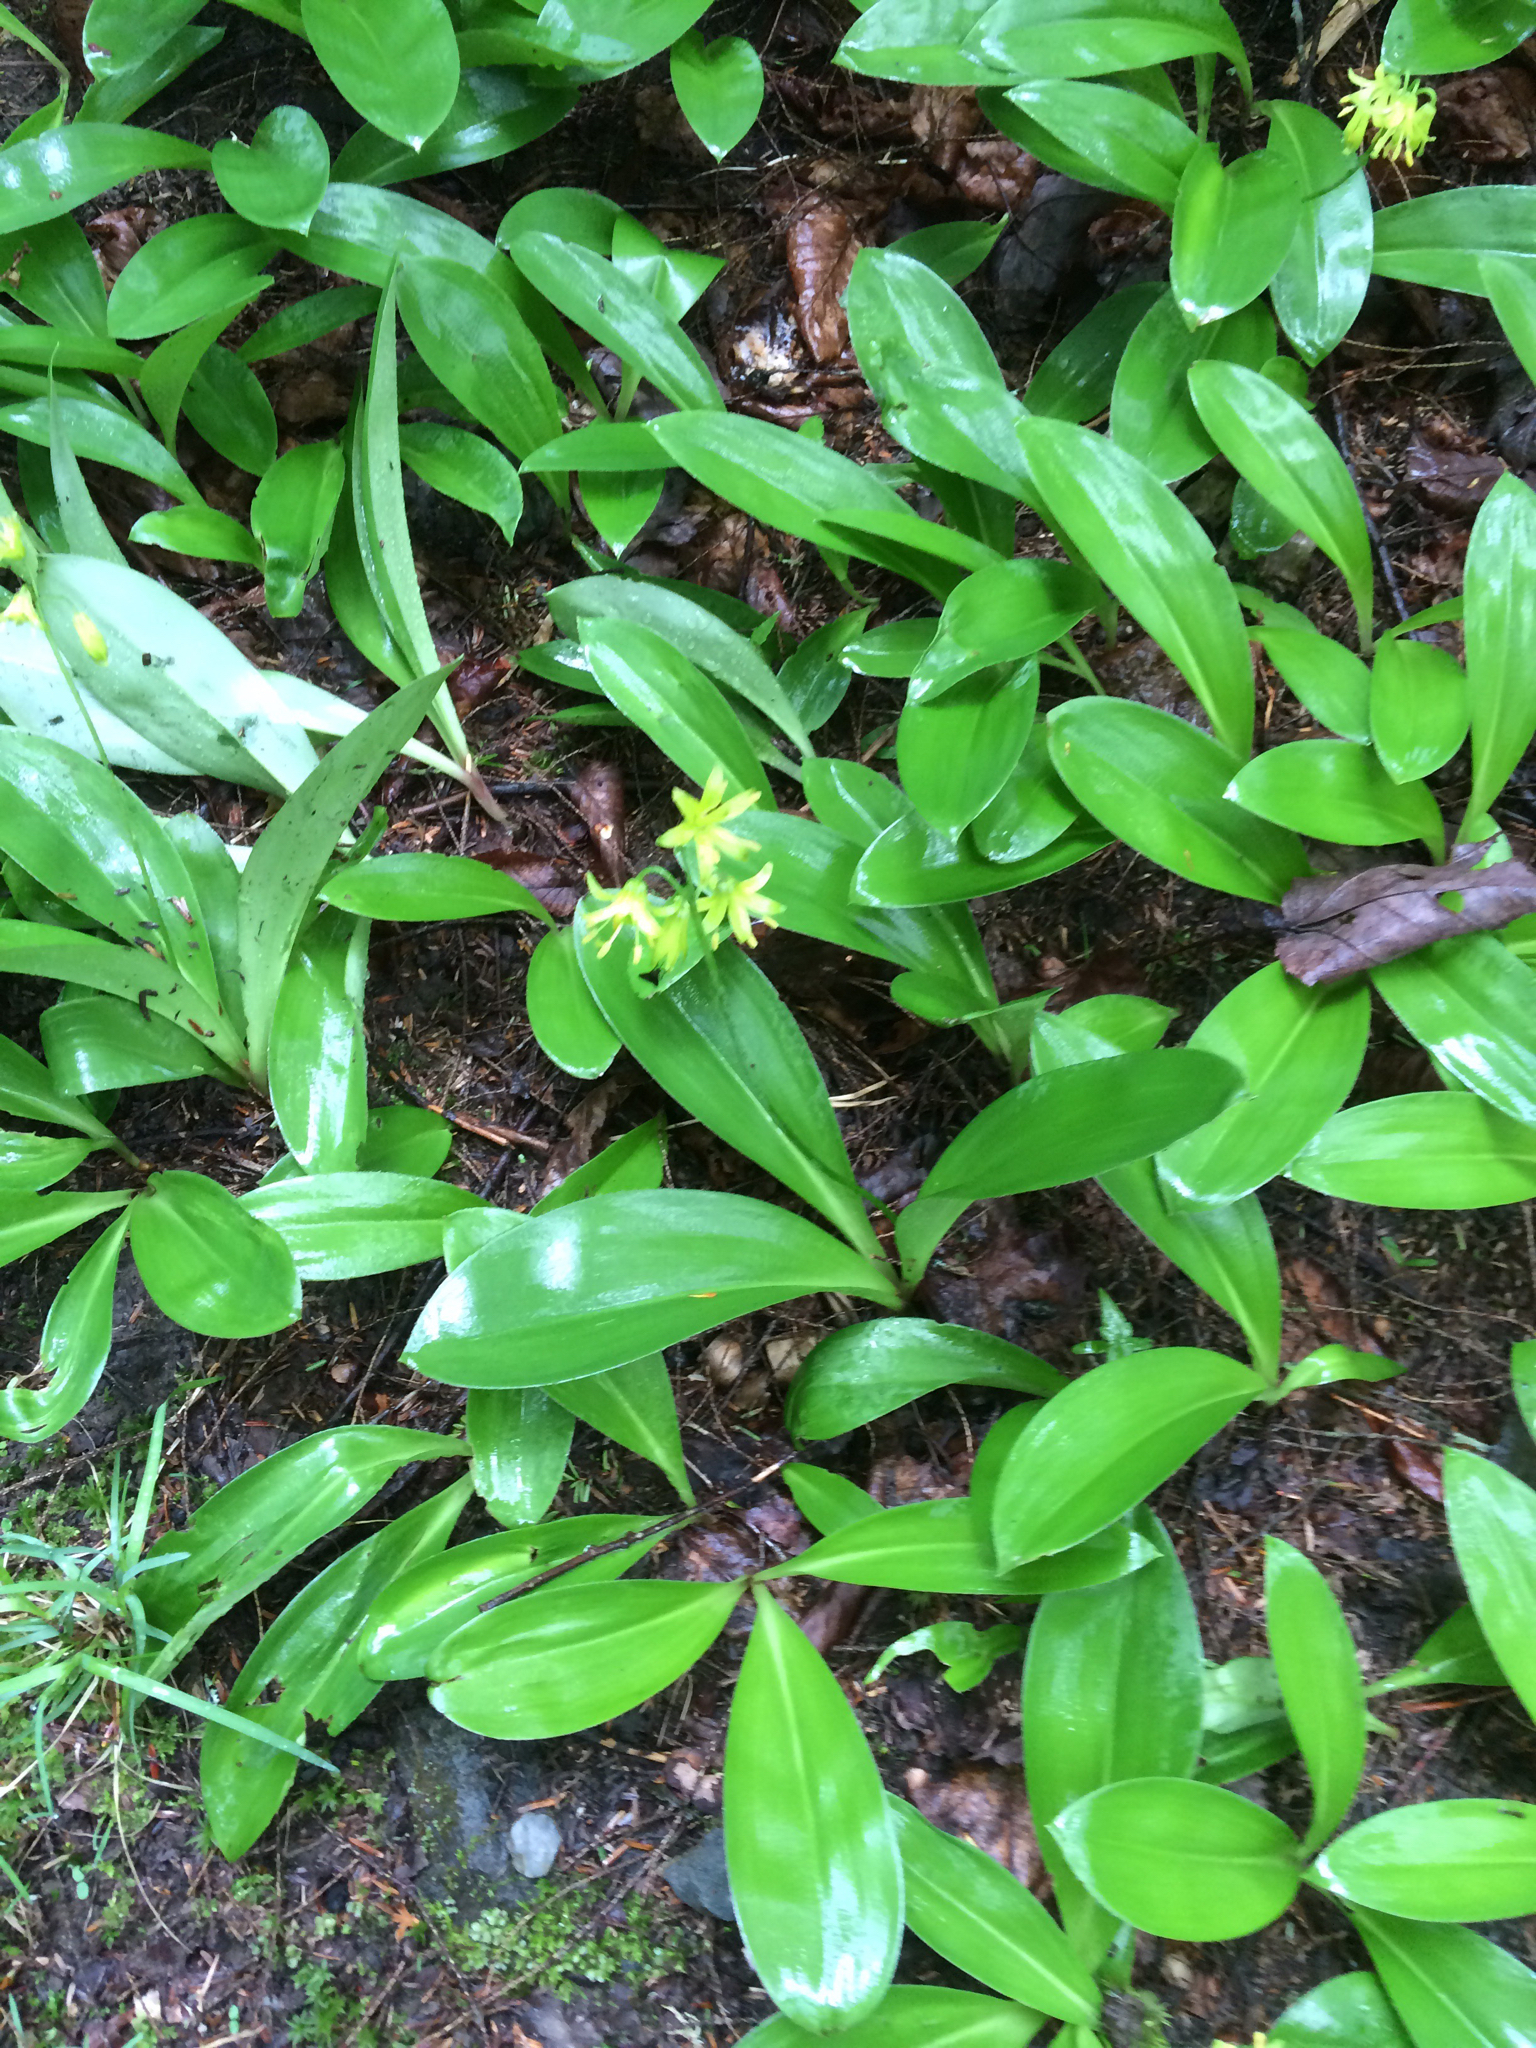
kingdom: Plantae
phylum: Tracheophyta
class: Liliopsida
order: Liliales
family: Liliaceae
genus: Clintonia
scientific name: Clintonia borealis
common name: Yellow clintonia
